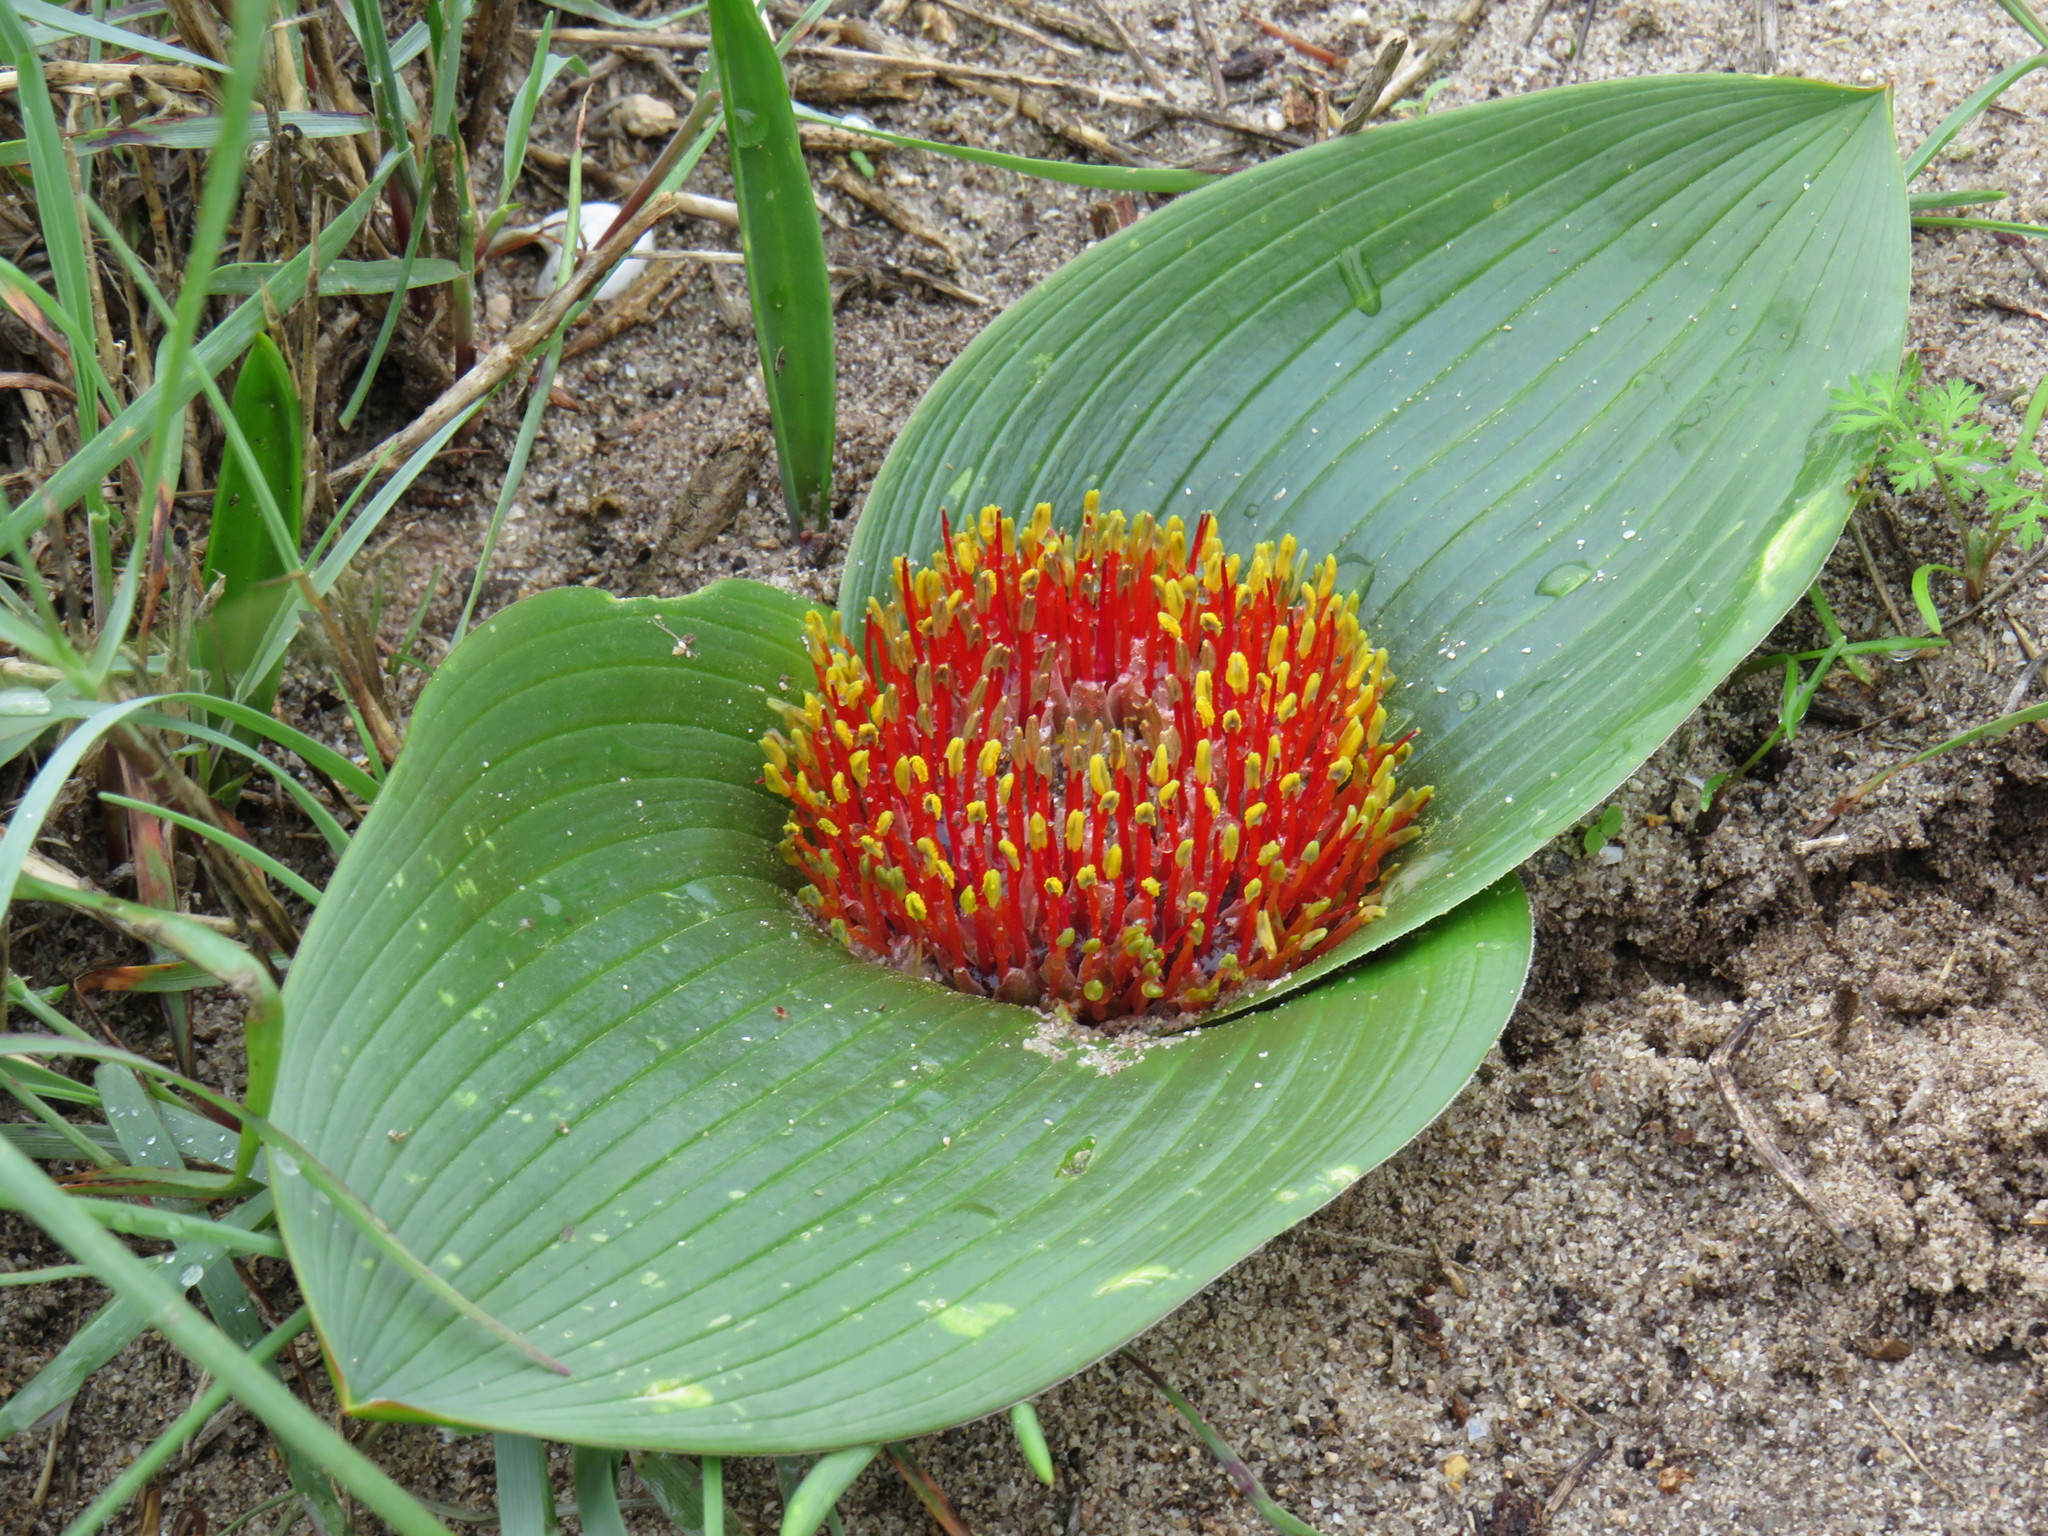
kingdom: Plantae
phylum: Tracheophyta
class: Liliopsida
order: Asparagales
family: Asparagaceae
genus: Daubenya
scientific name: Daubenya zeyheri
